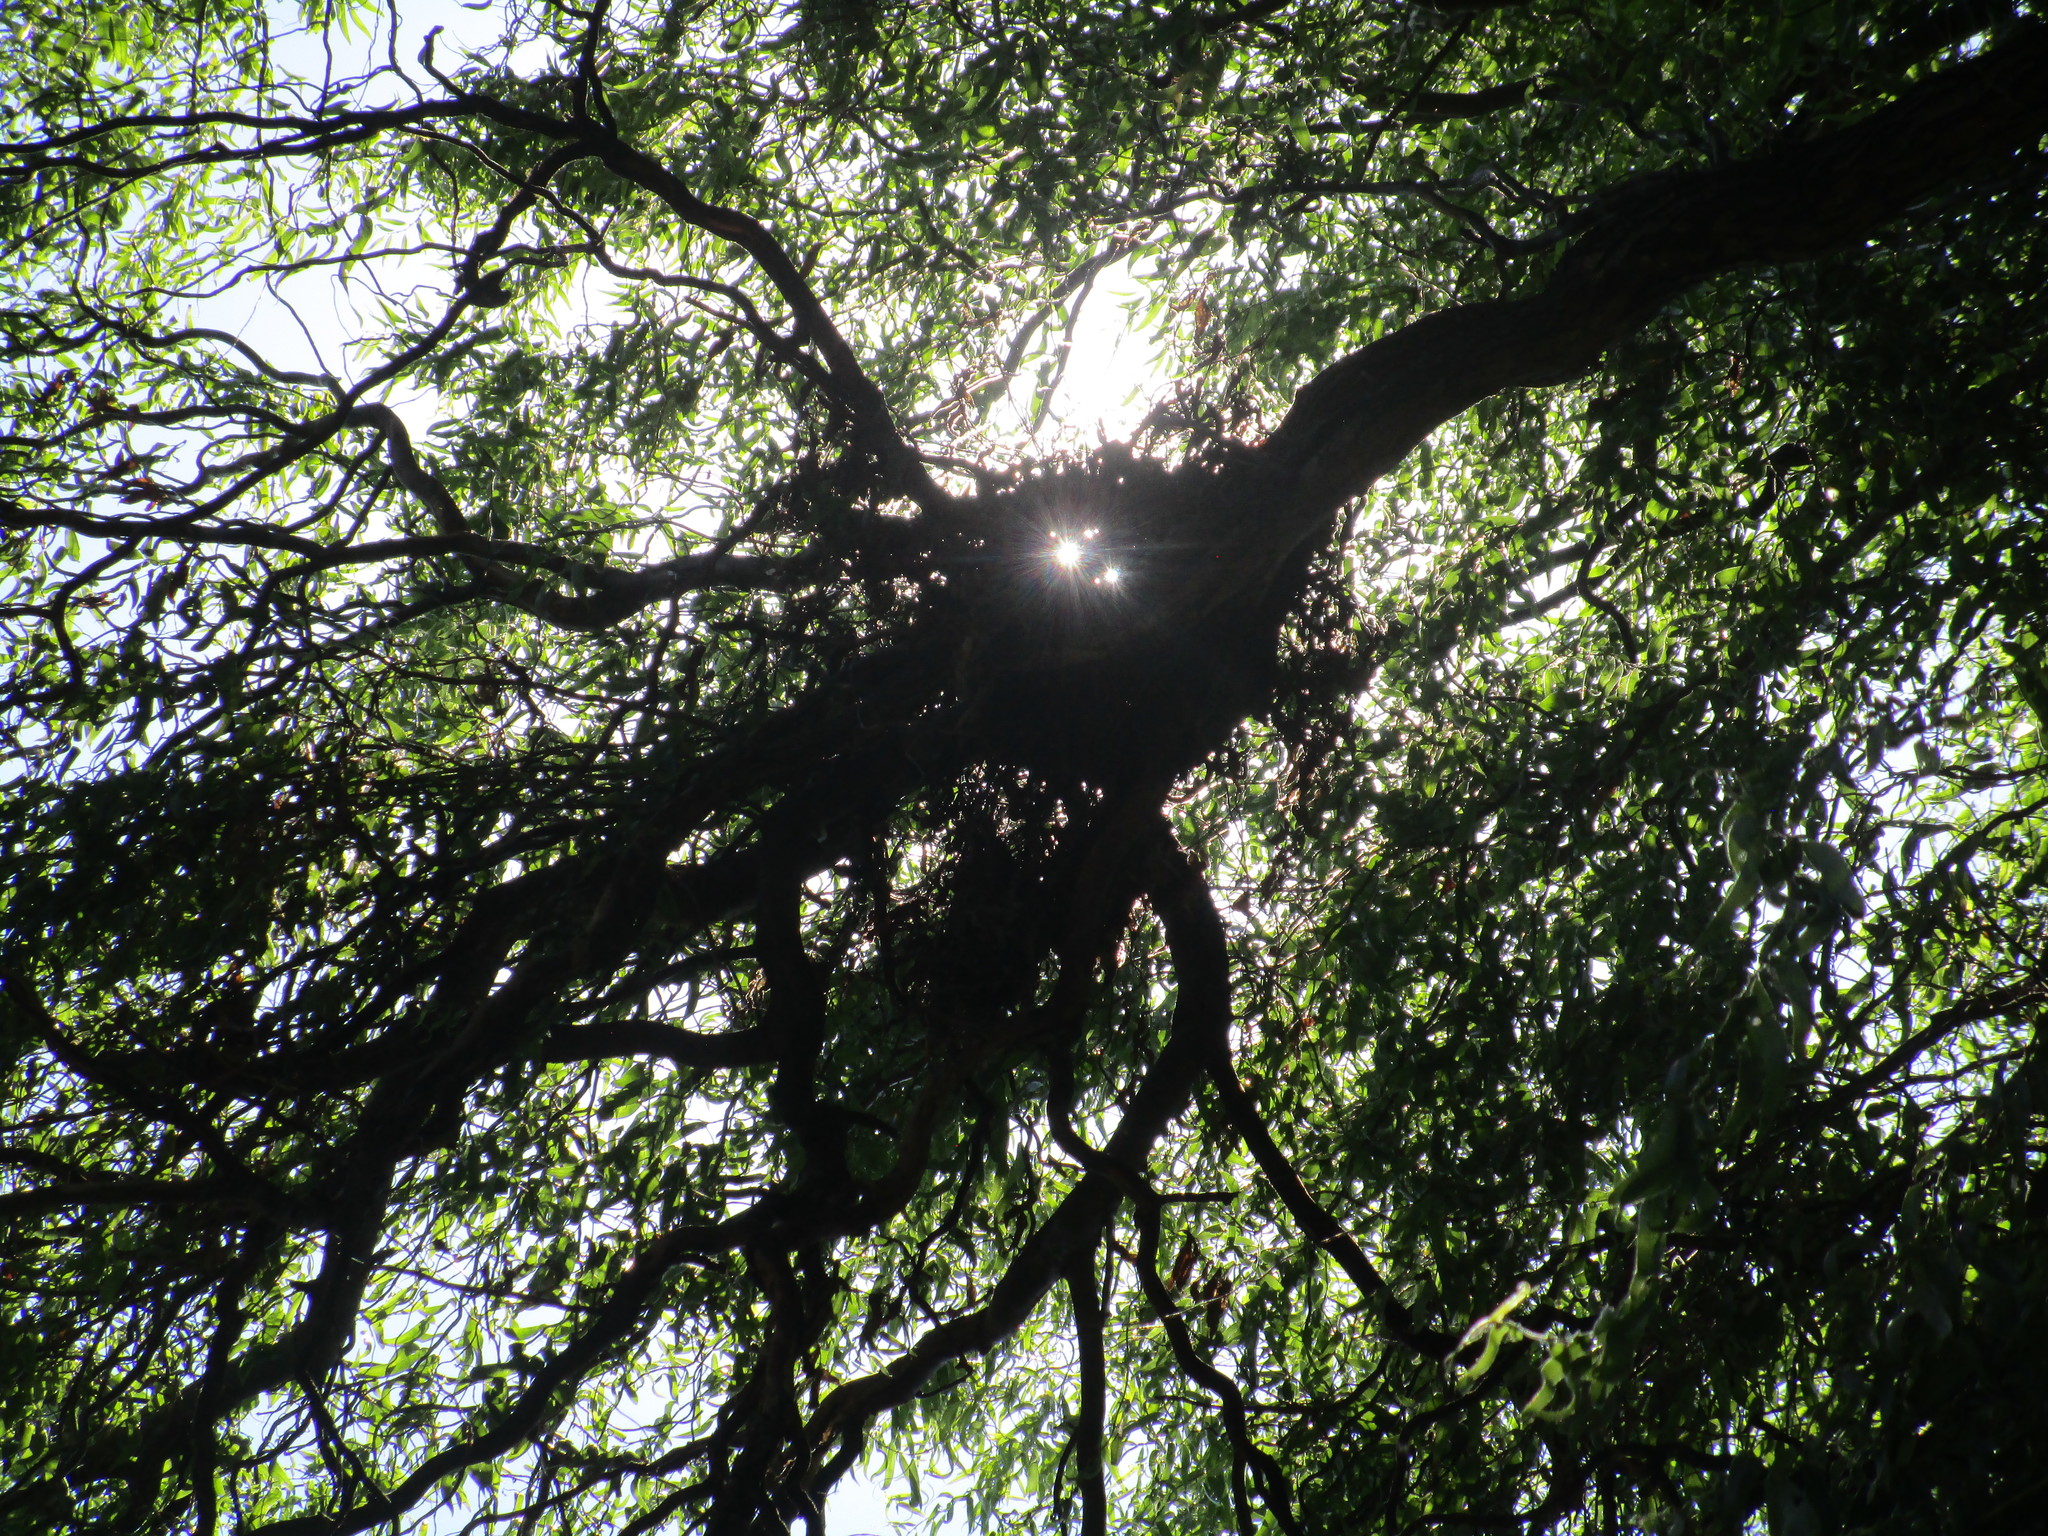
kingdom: Animalia
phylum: Chordata
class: Mammalia
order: Rodentia
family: Sciuridae
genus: Sciurus
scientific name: Sciurus carolinensis
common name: Eastern gray squirrel
